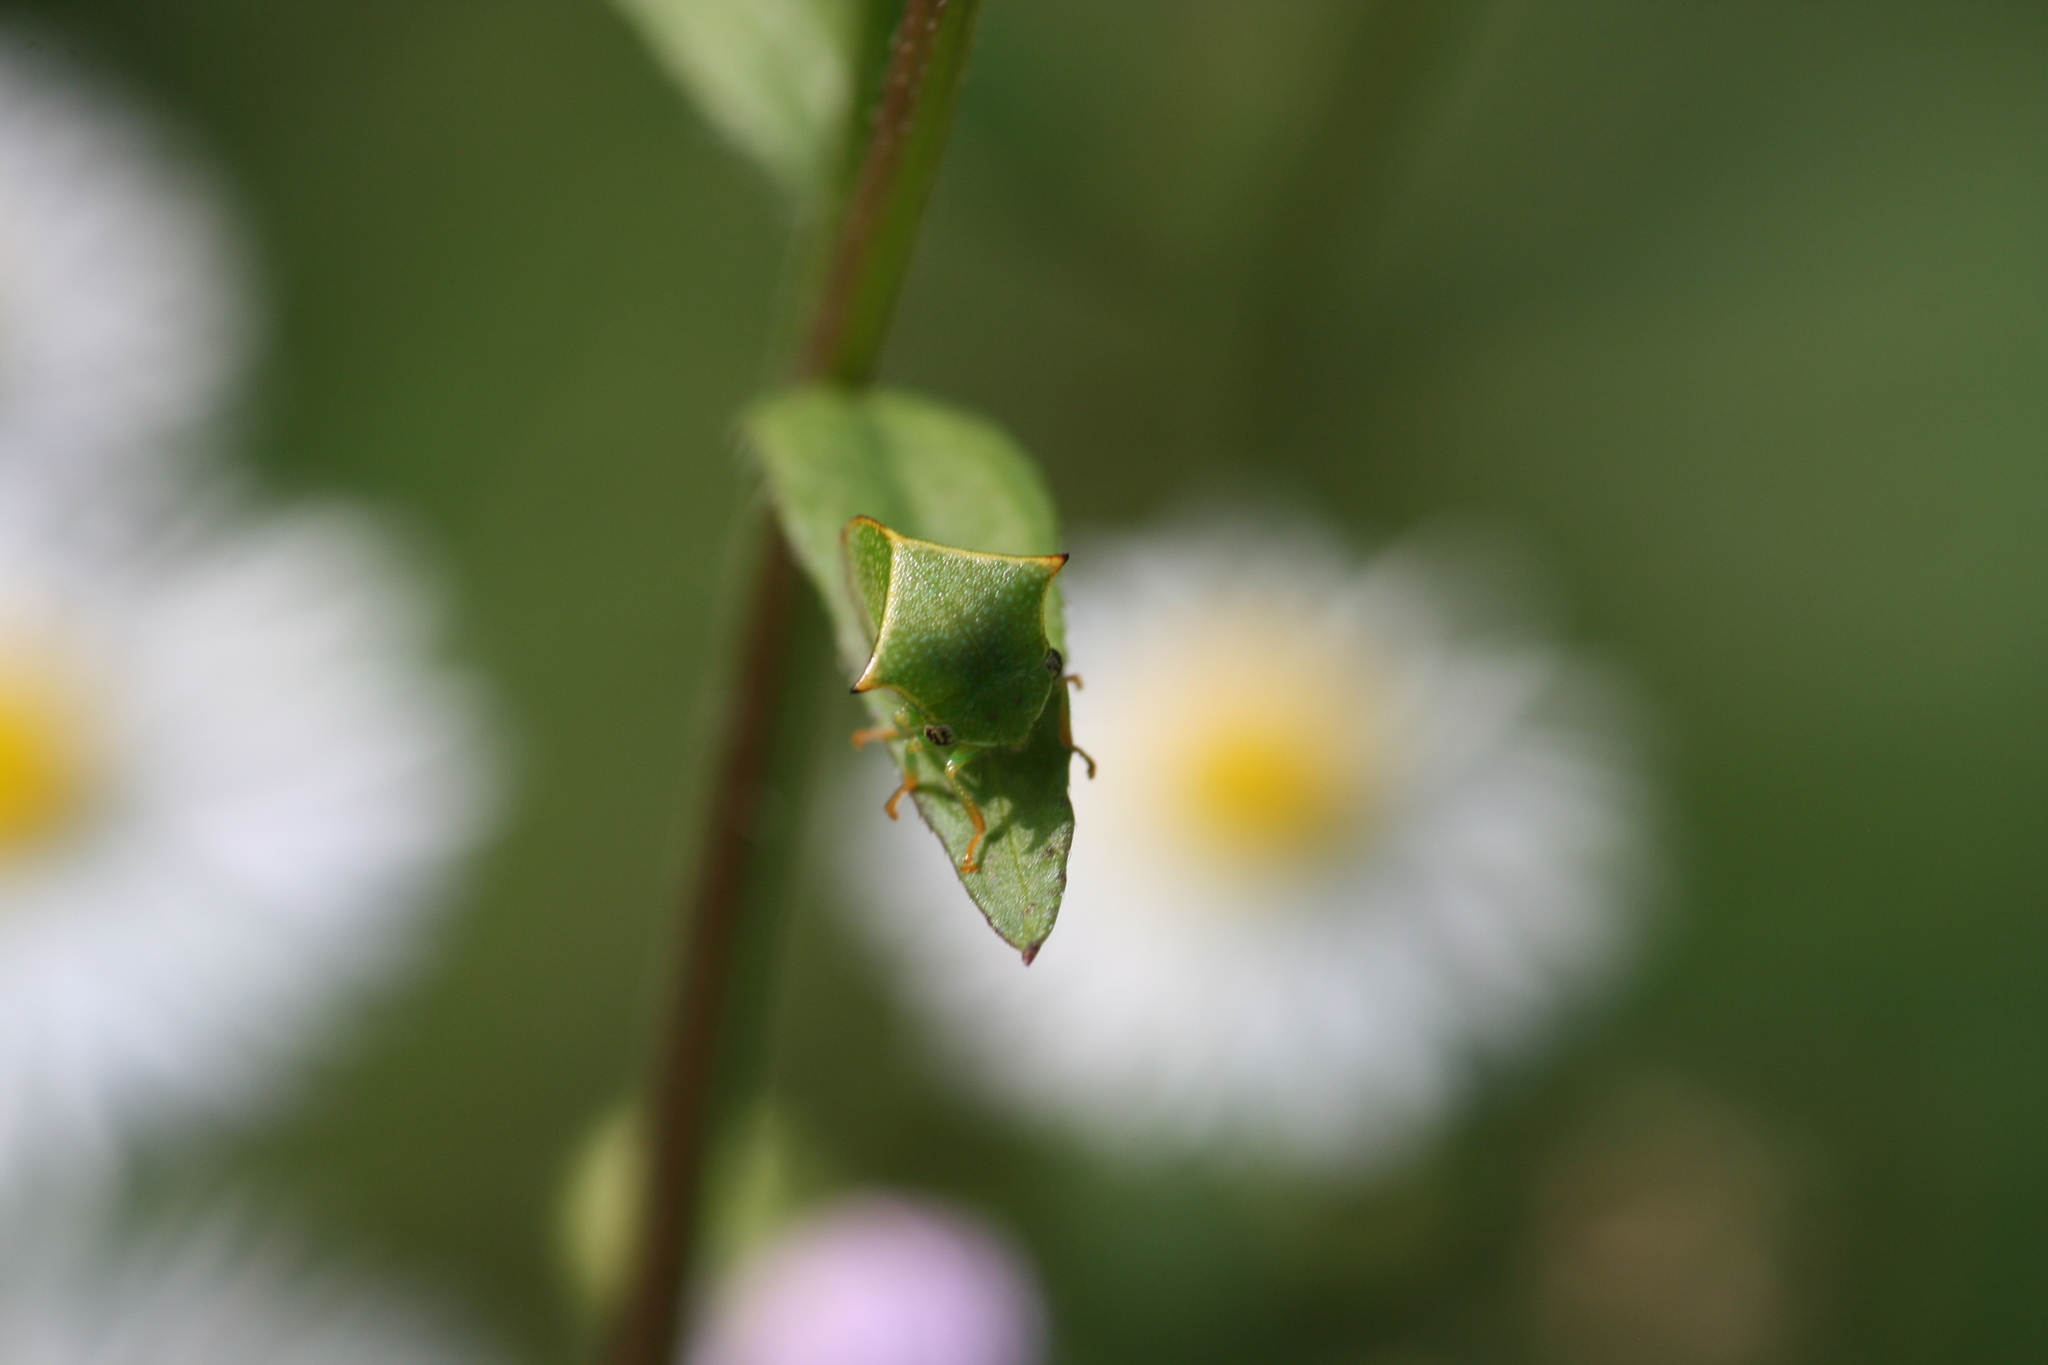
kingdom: Animalia
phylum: Arthropoda
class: Insecta
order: Hemiptera
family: Membracidae
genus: Stictocephala
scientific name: Stictocephala bisonia
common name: American buffalo treehopper
